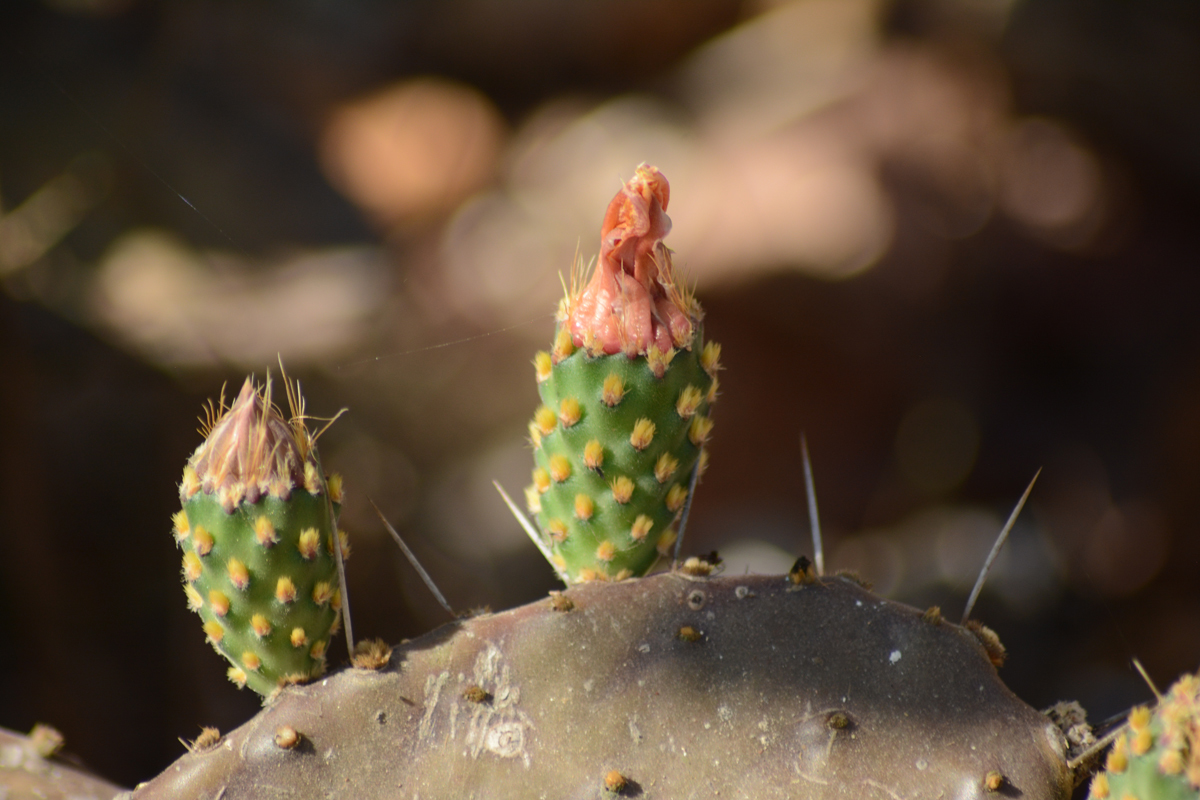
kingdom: Plantae
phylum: Tracheophyta
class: Magnoliopsida
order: Caryophyllales
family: Cactaceae
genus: Opuntia
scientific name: Opuntia decumbens
